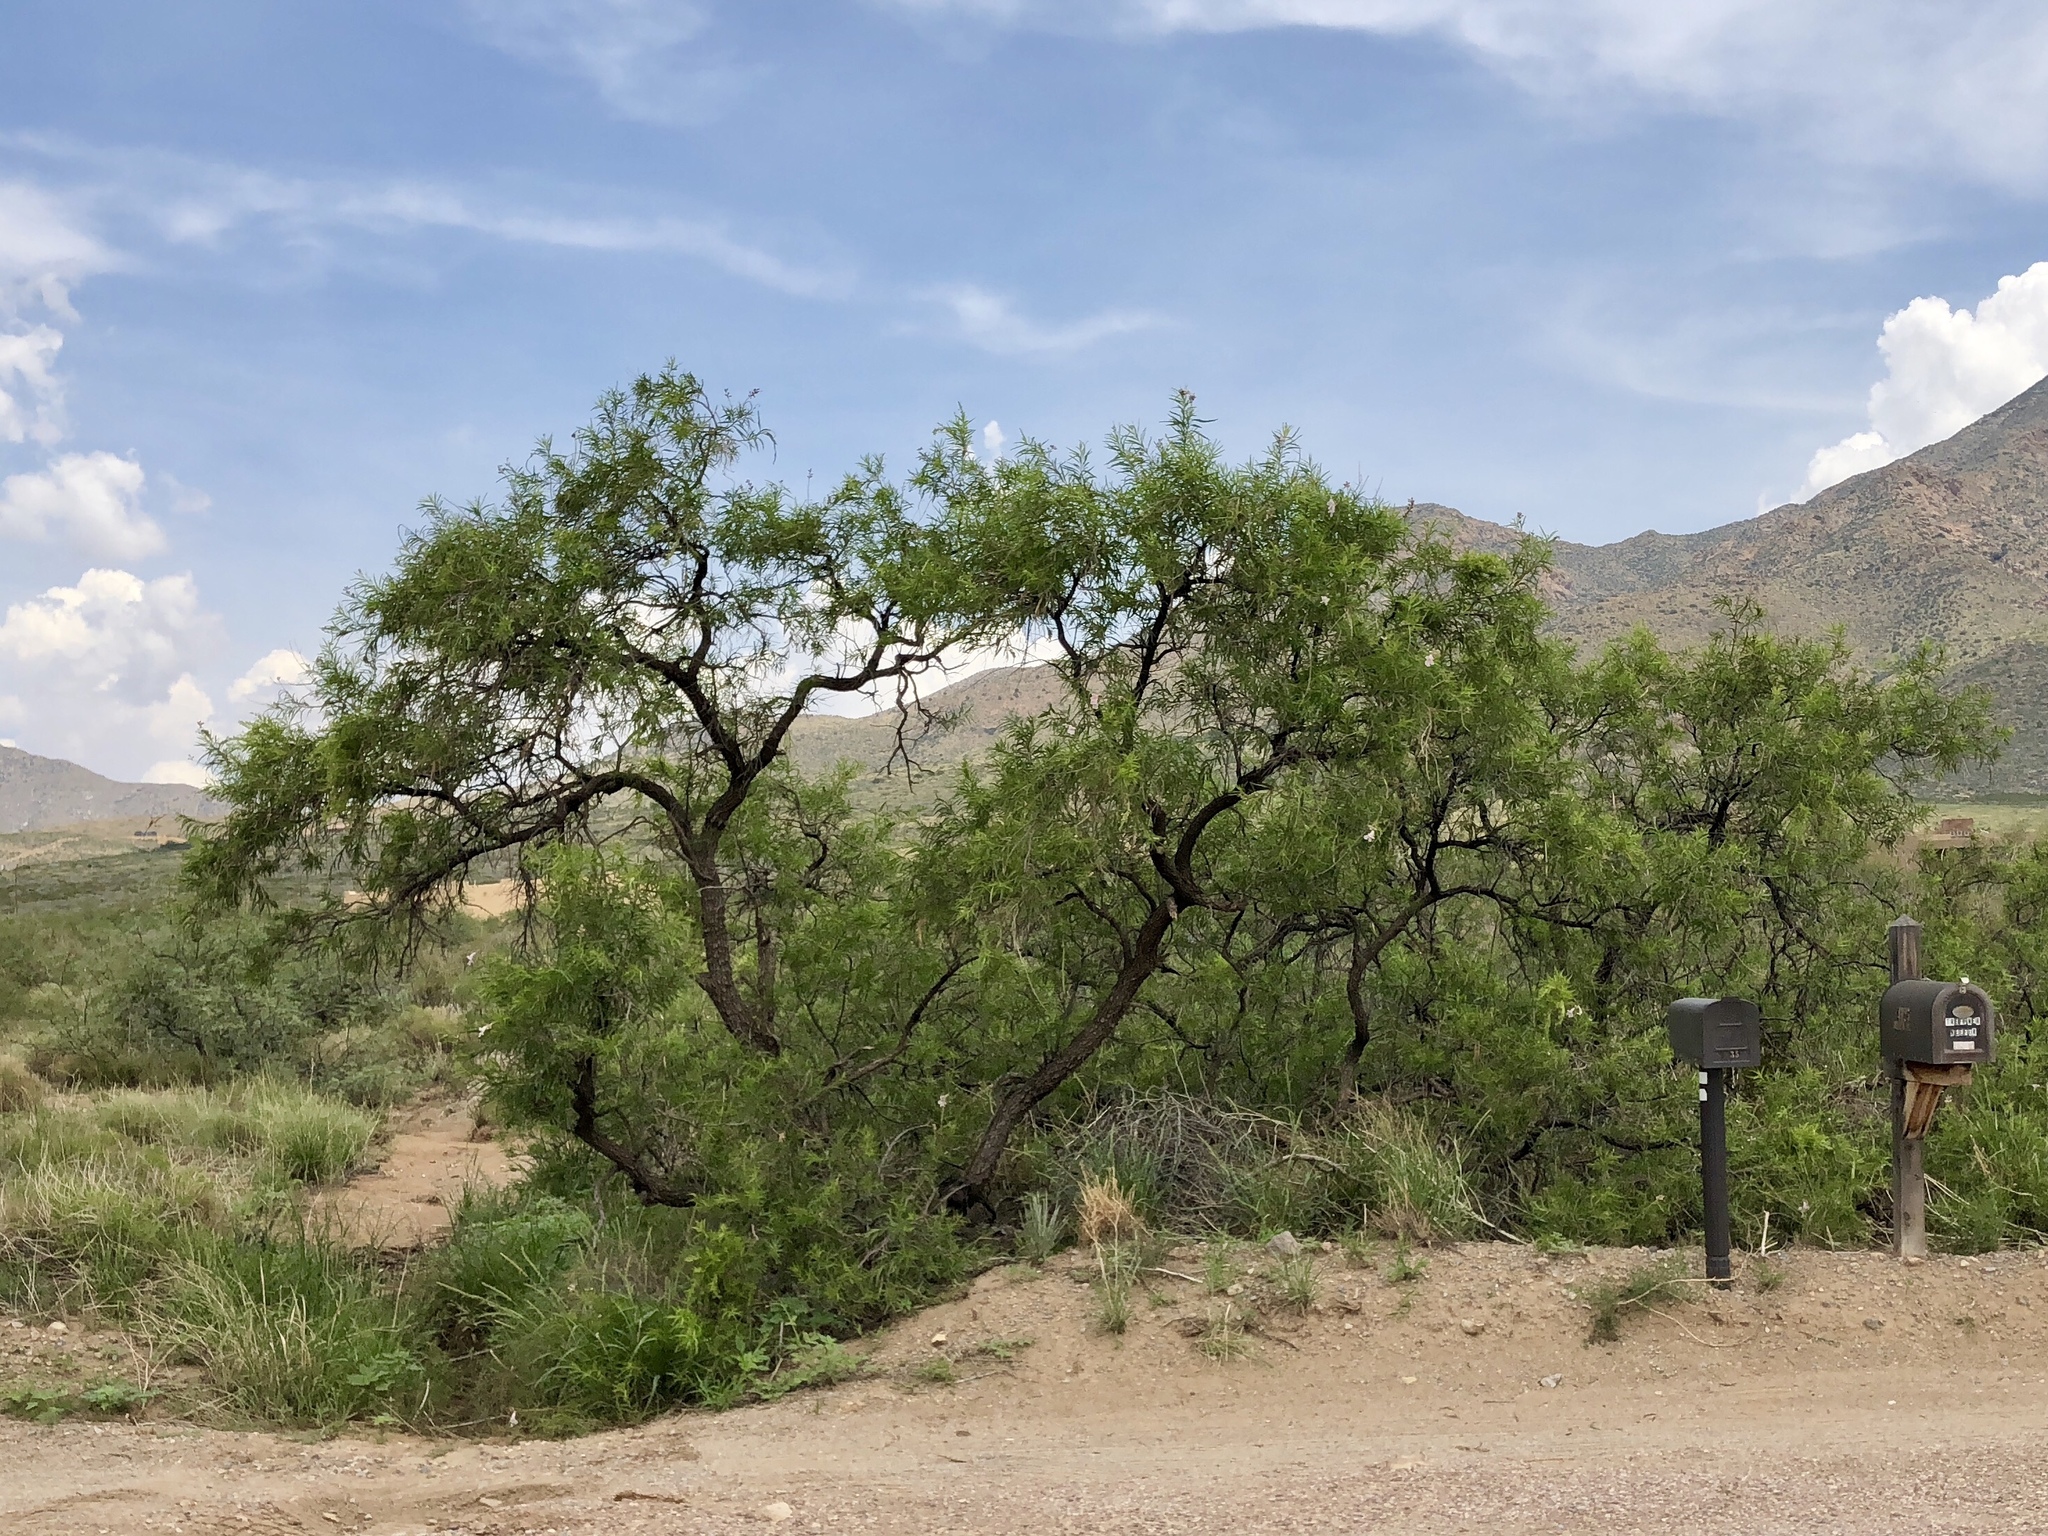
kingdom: Plantae
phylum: Tracheophyta
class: Magnoliopsida
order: Lamiales
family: Bignoniaceae
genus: Chilopsis
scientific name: Chilopsis linearis
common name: Desert-willow
